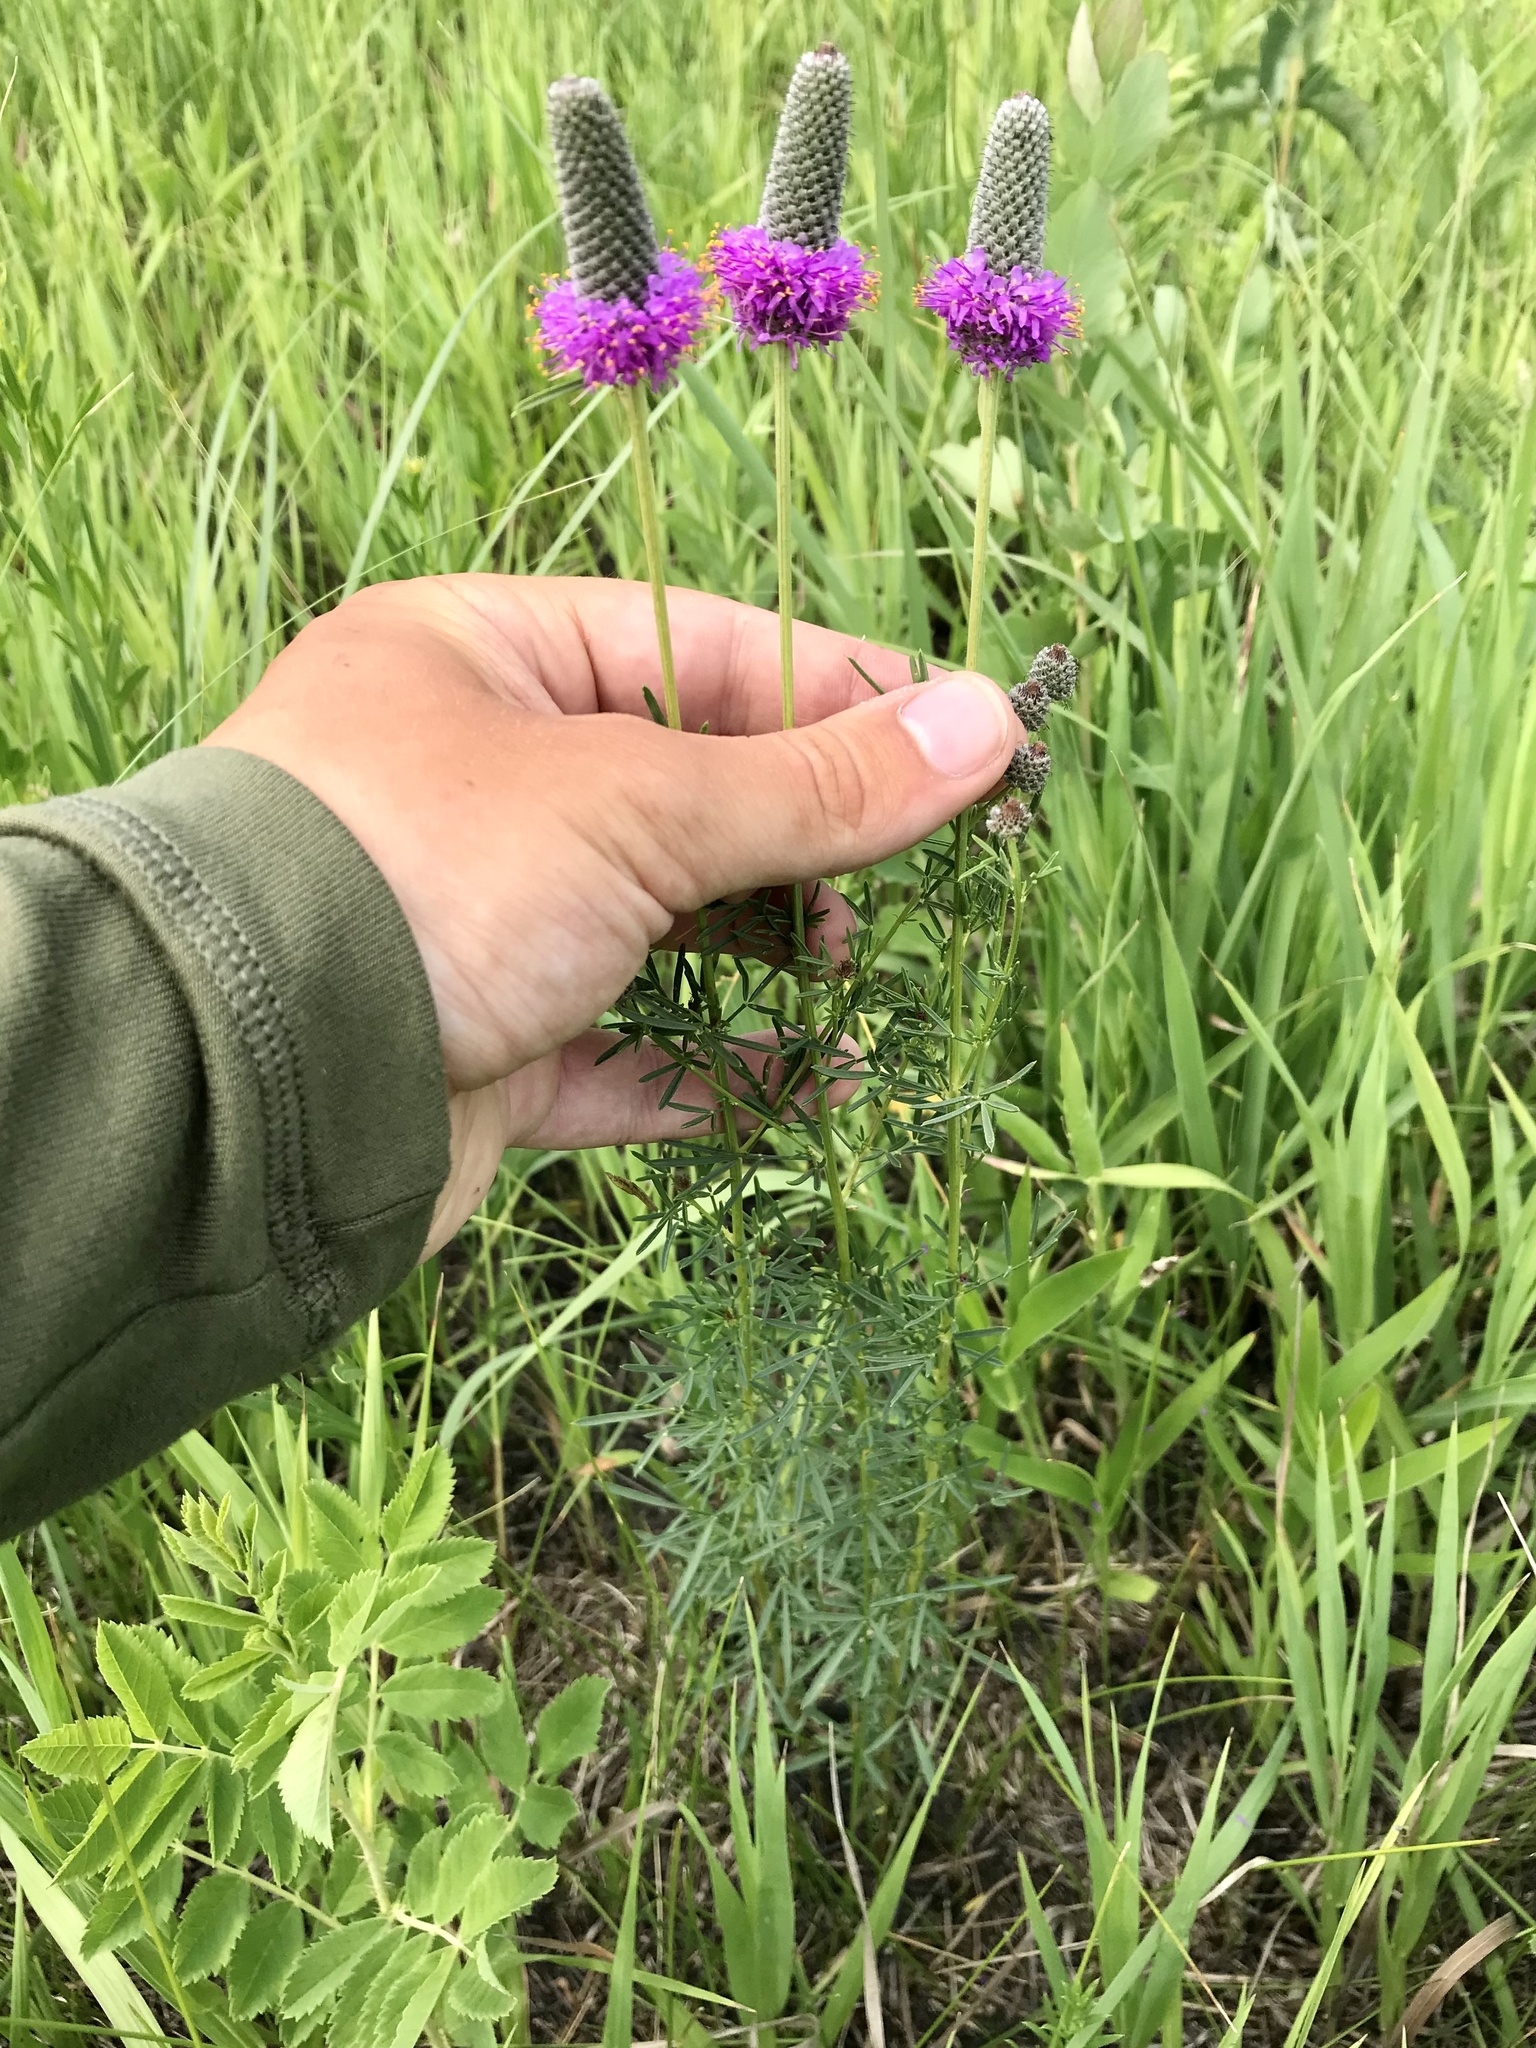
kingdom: Plantae
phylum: Tracheophyta
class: Magnoliopsida
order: Fabales
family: Fabaceae
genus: Dalea
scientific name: Dalea purpurea
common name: Purple prairie-clover
